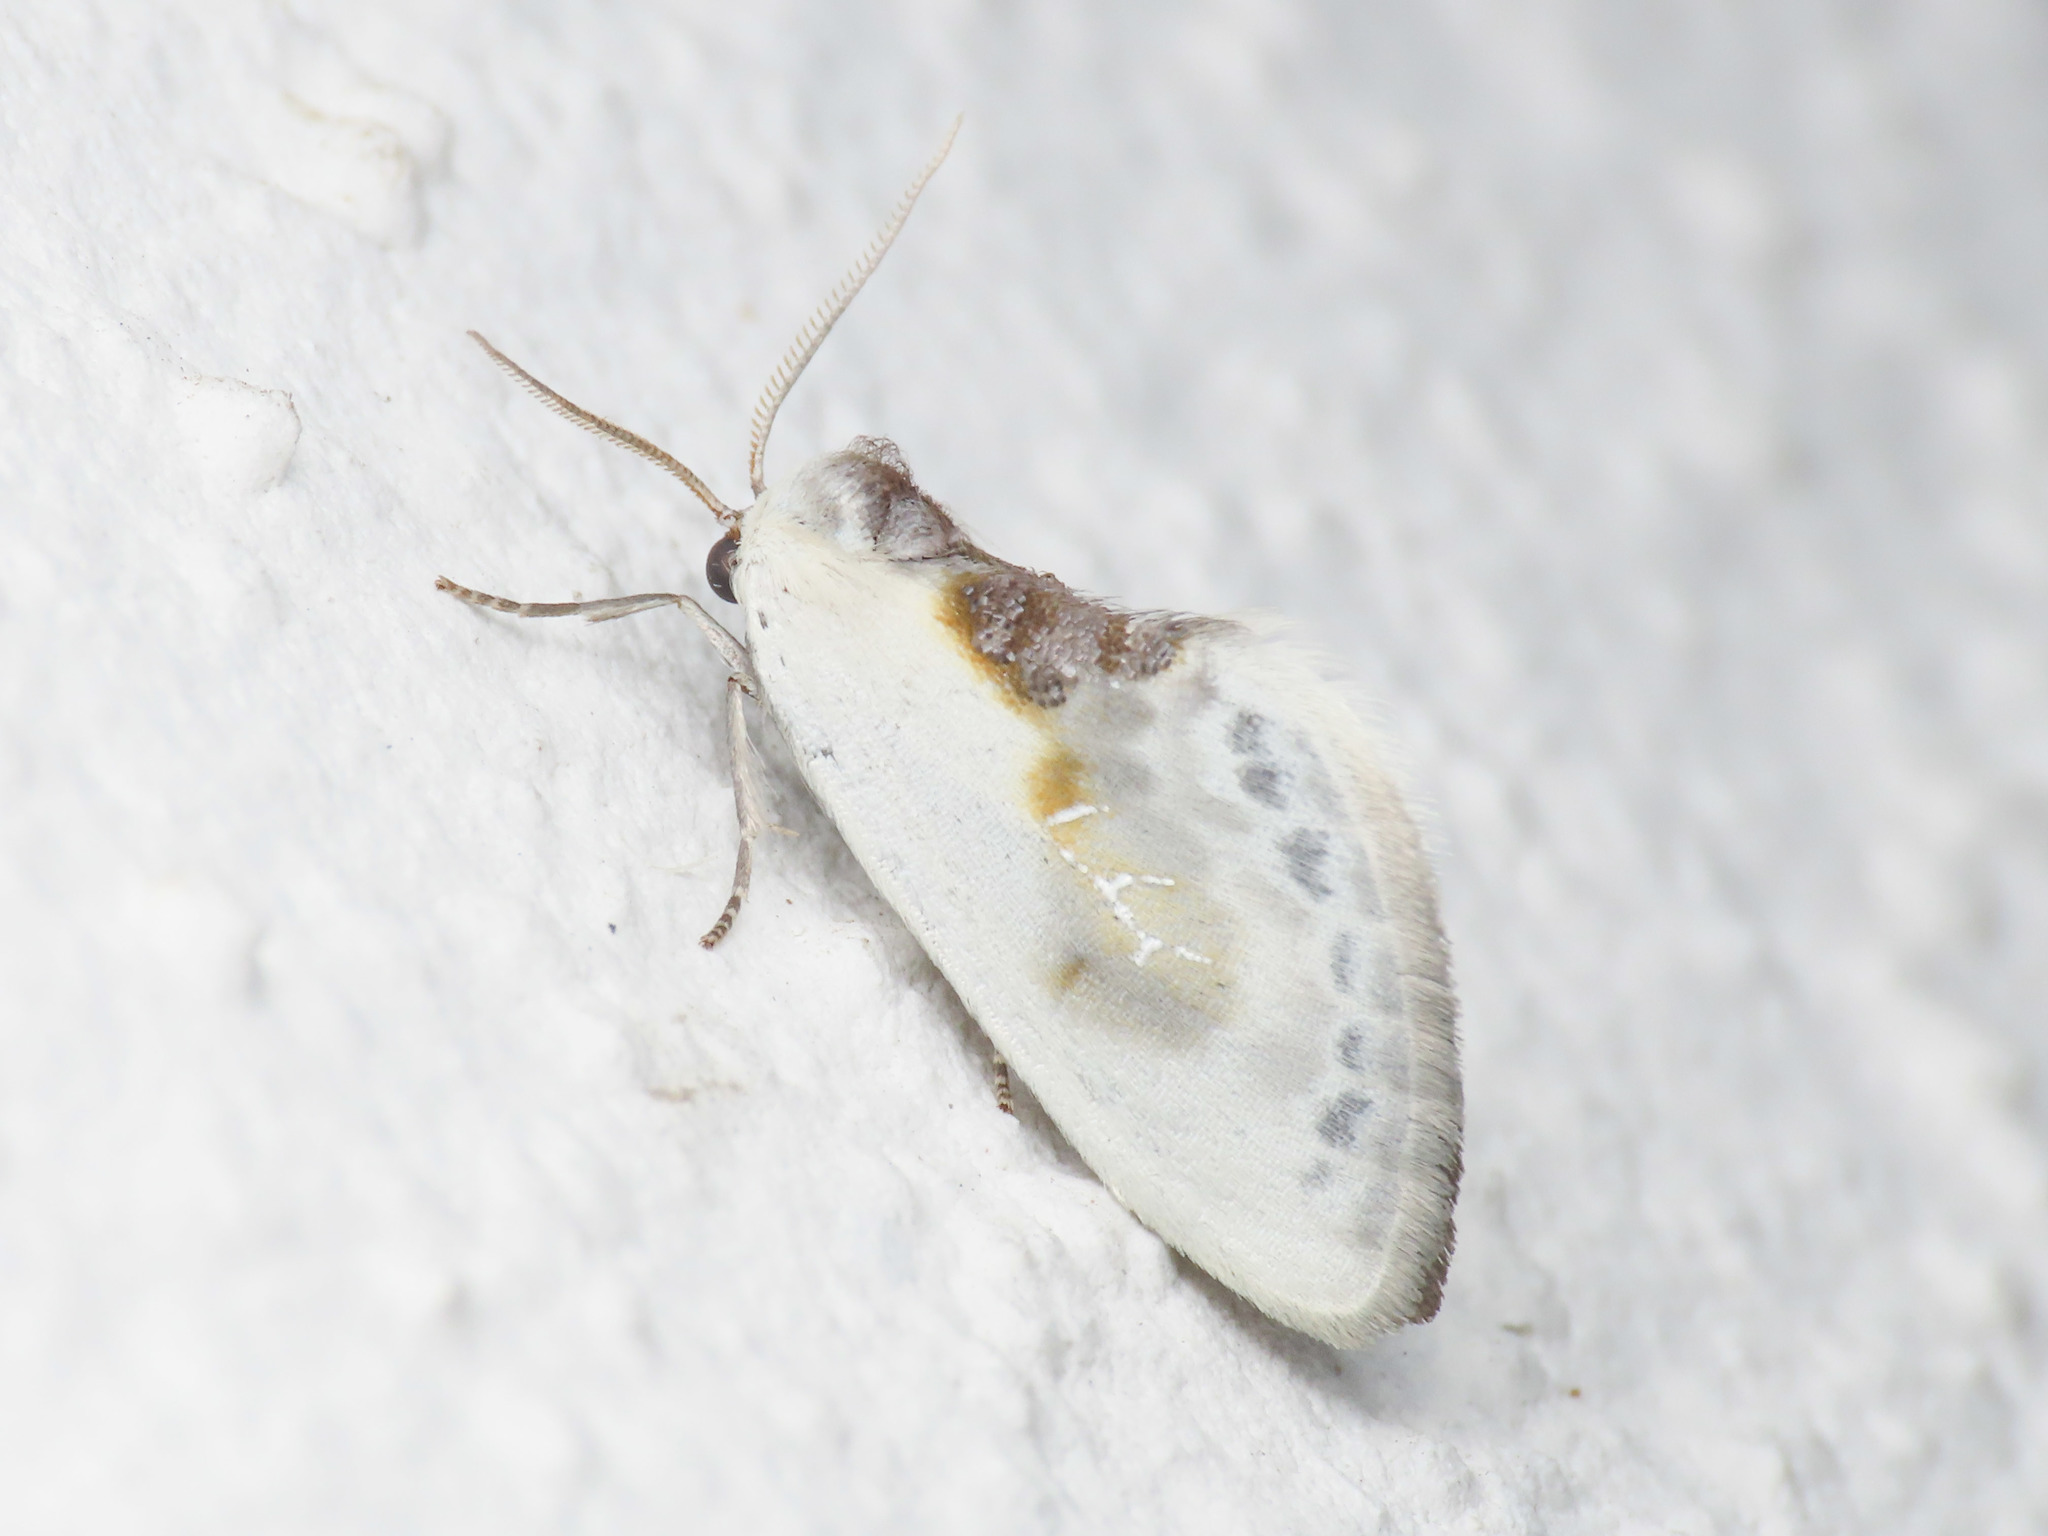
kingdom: Animalia
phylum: Arthropoda
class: Insecta
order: Lepidoptera
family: Drepanidae
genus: Cilix
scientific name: Cilix glaucata
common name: Chinese character
